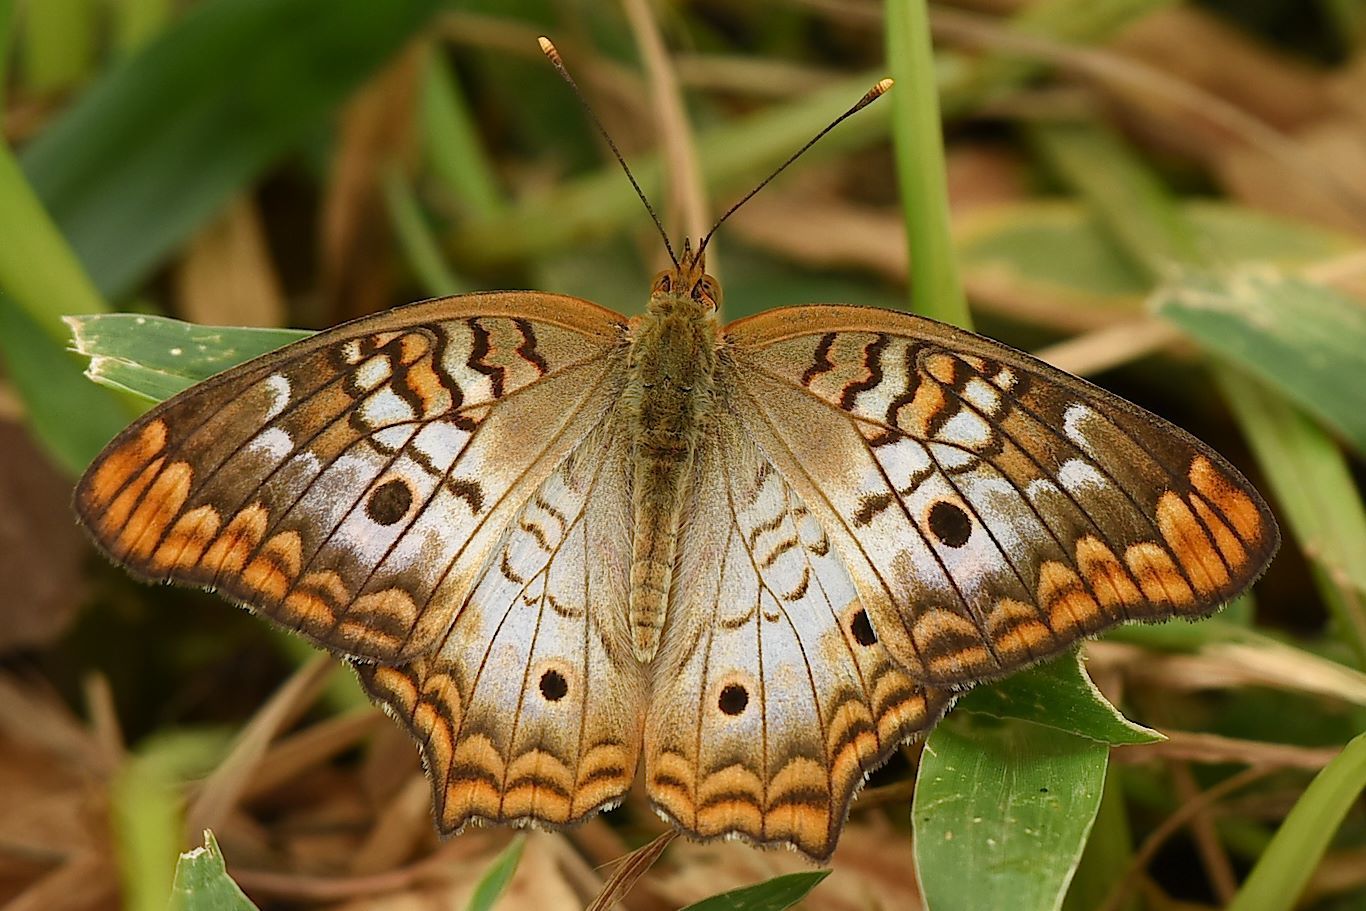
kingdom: Animalia
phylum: Arthropoda
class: Insecta
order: Lepidoptera
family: Nymphalidae
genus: Anartia
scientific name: Anartia jatrophae
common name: White peacock
